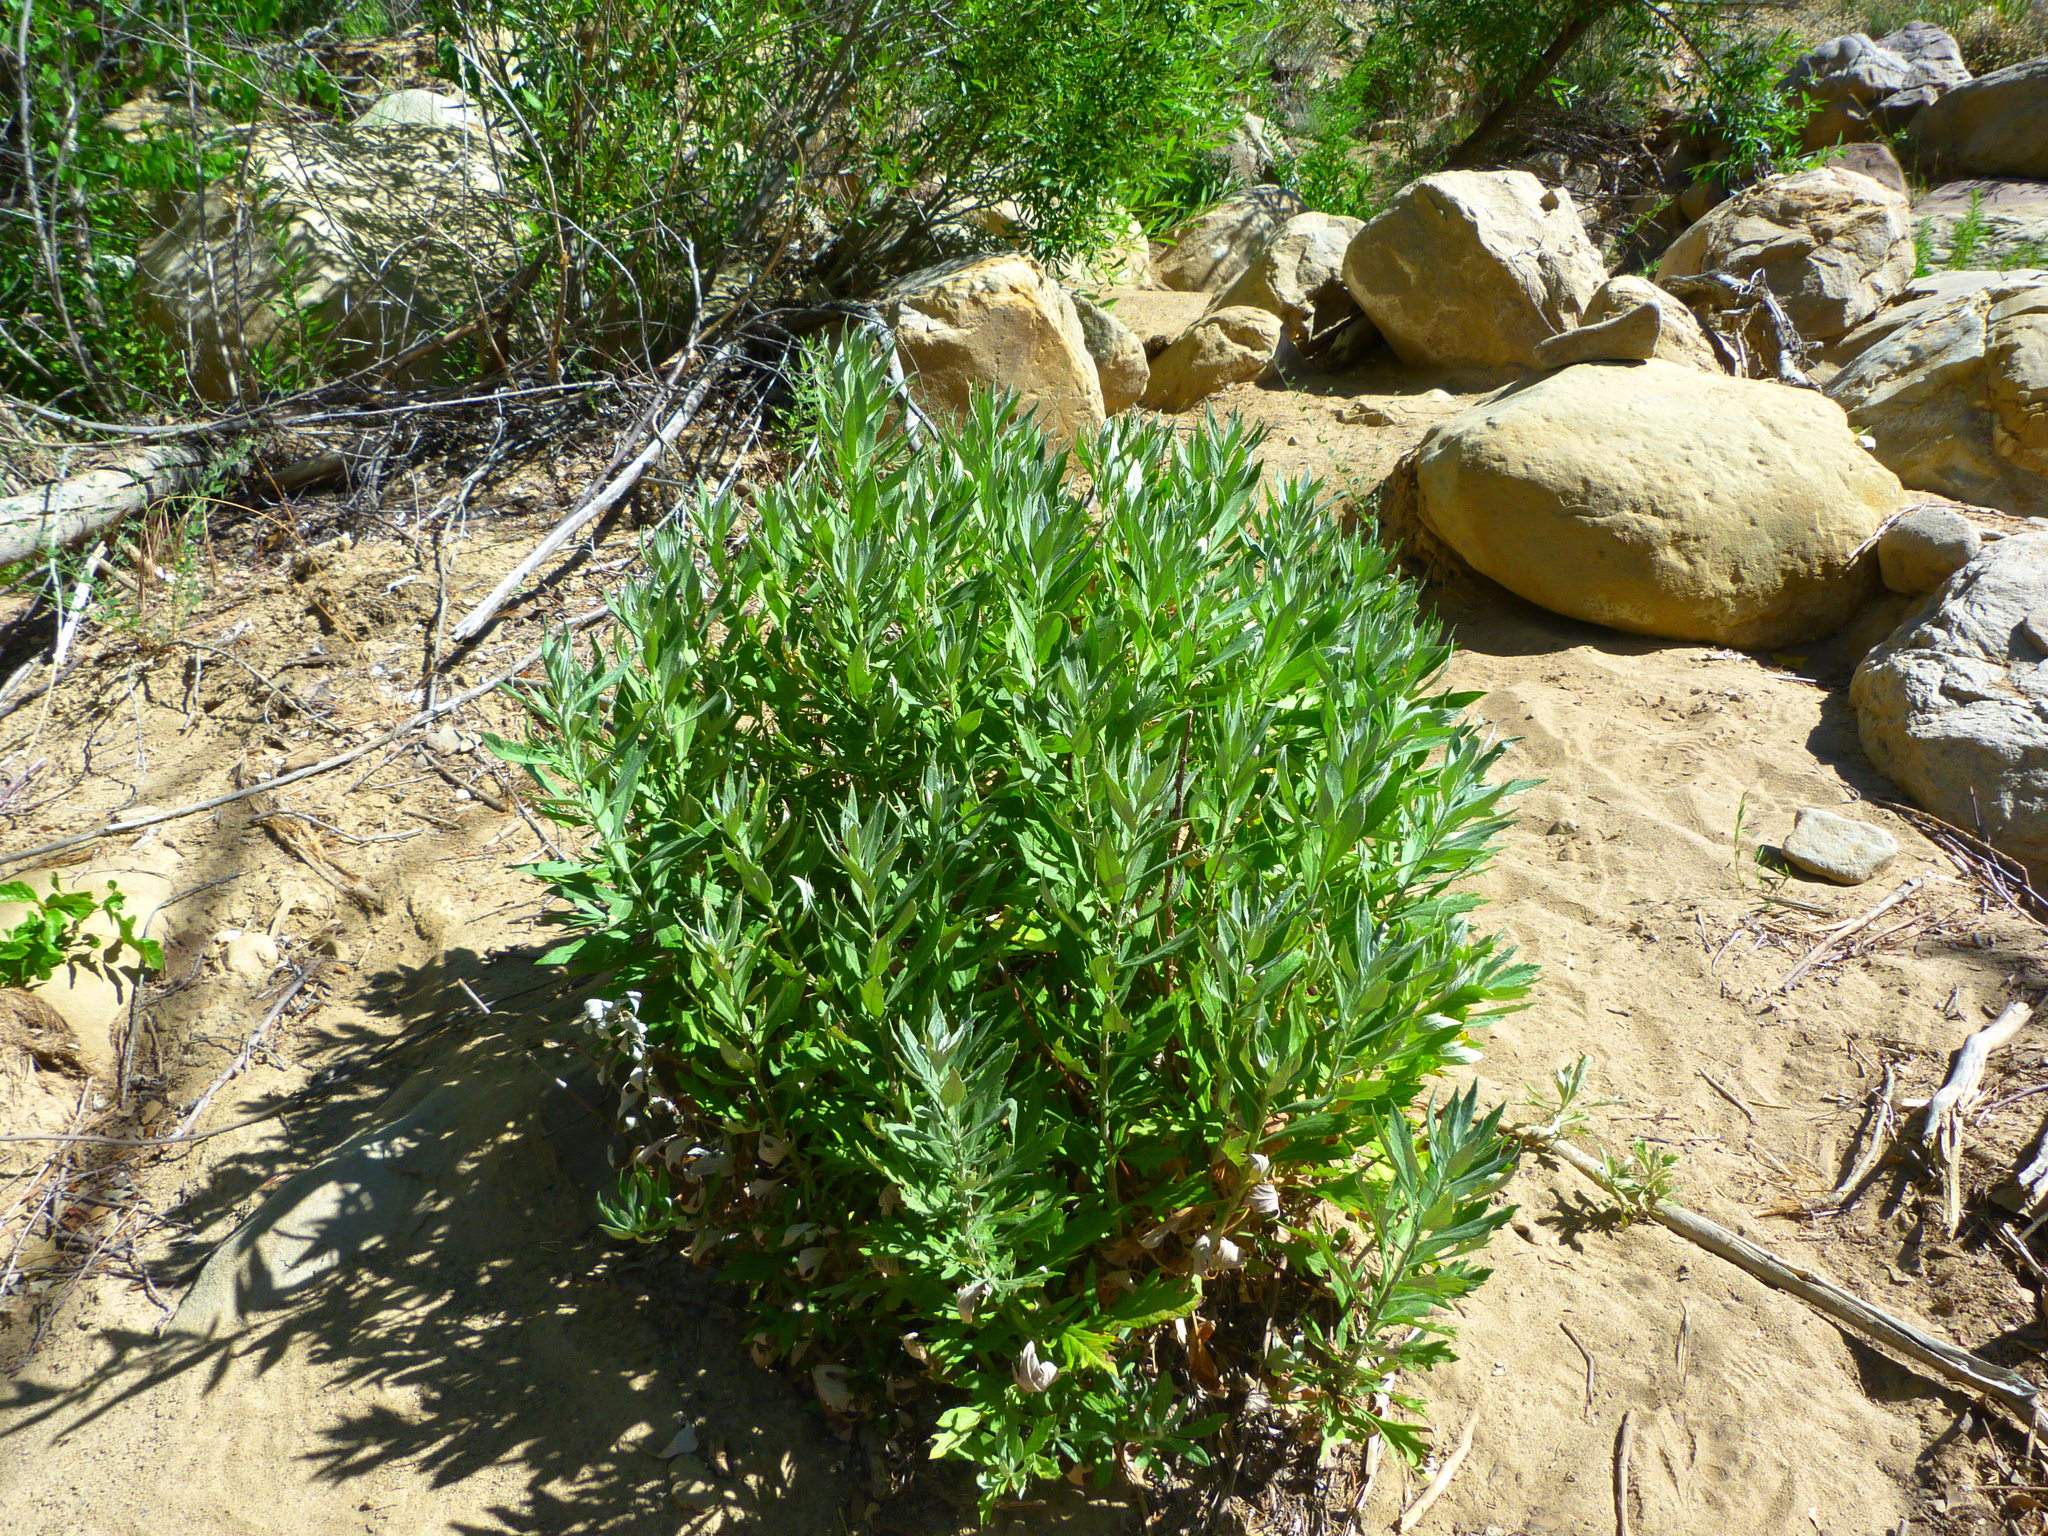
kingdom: Plantae
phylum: Tracheophyta
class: Magnoliopsida
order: Asterales
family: Asteraceae
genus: Artemisia
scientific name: Artemisia douglasiana
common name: Northwest mugwort
